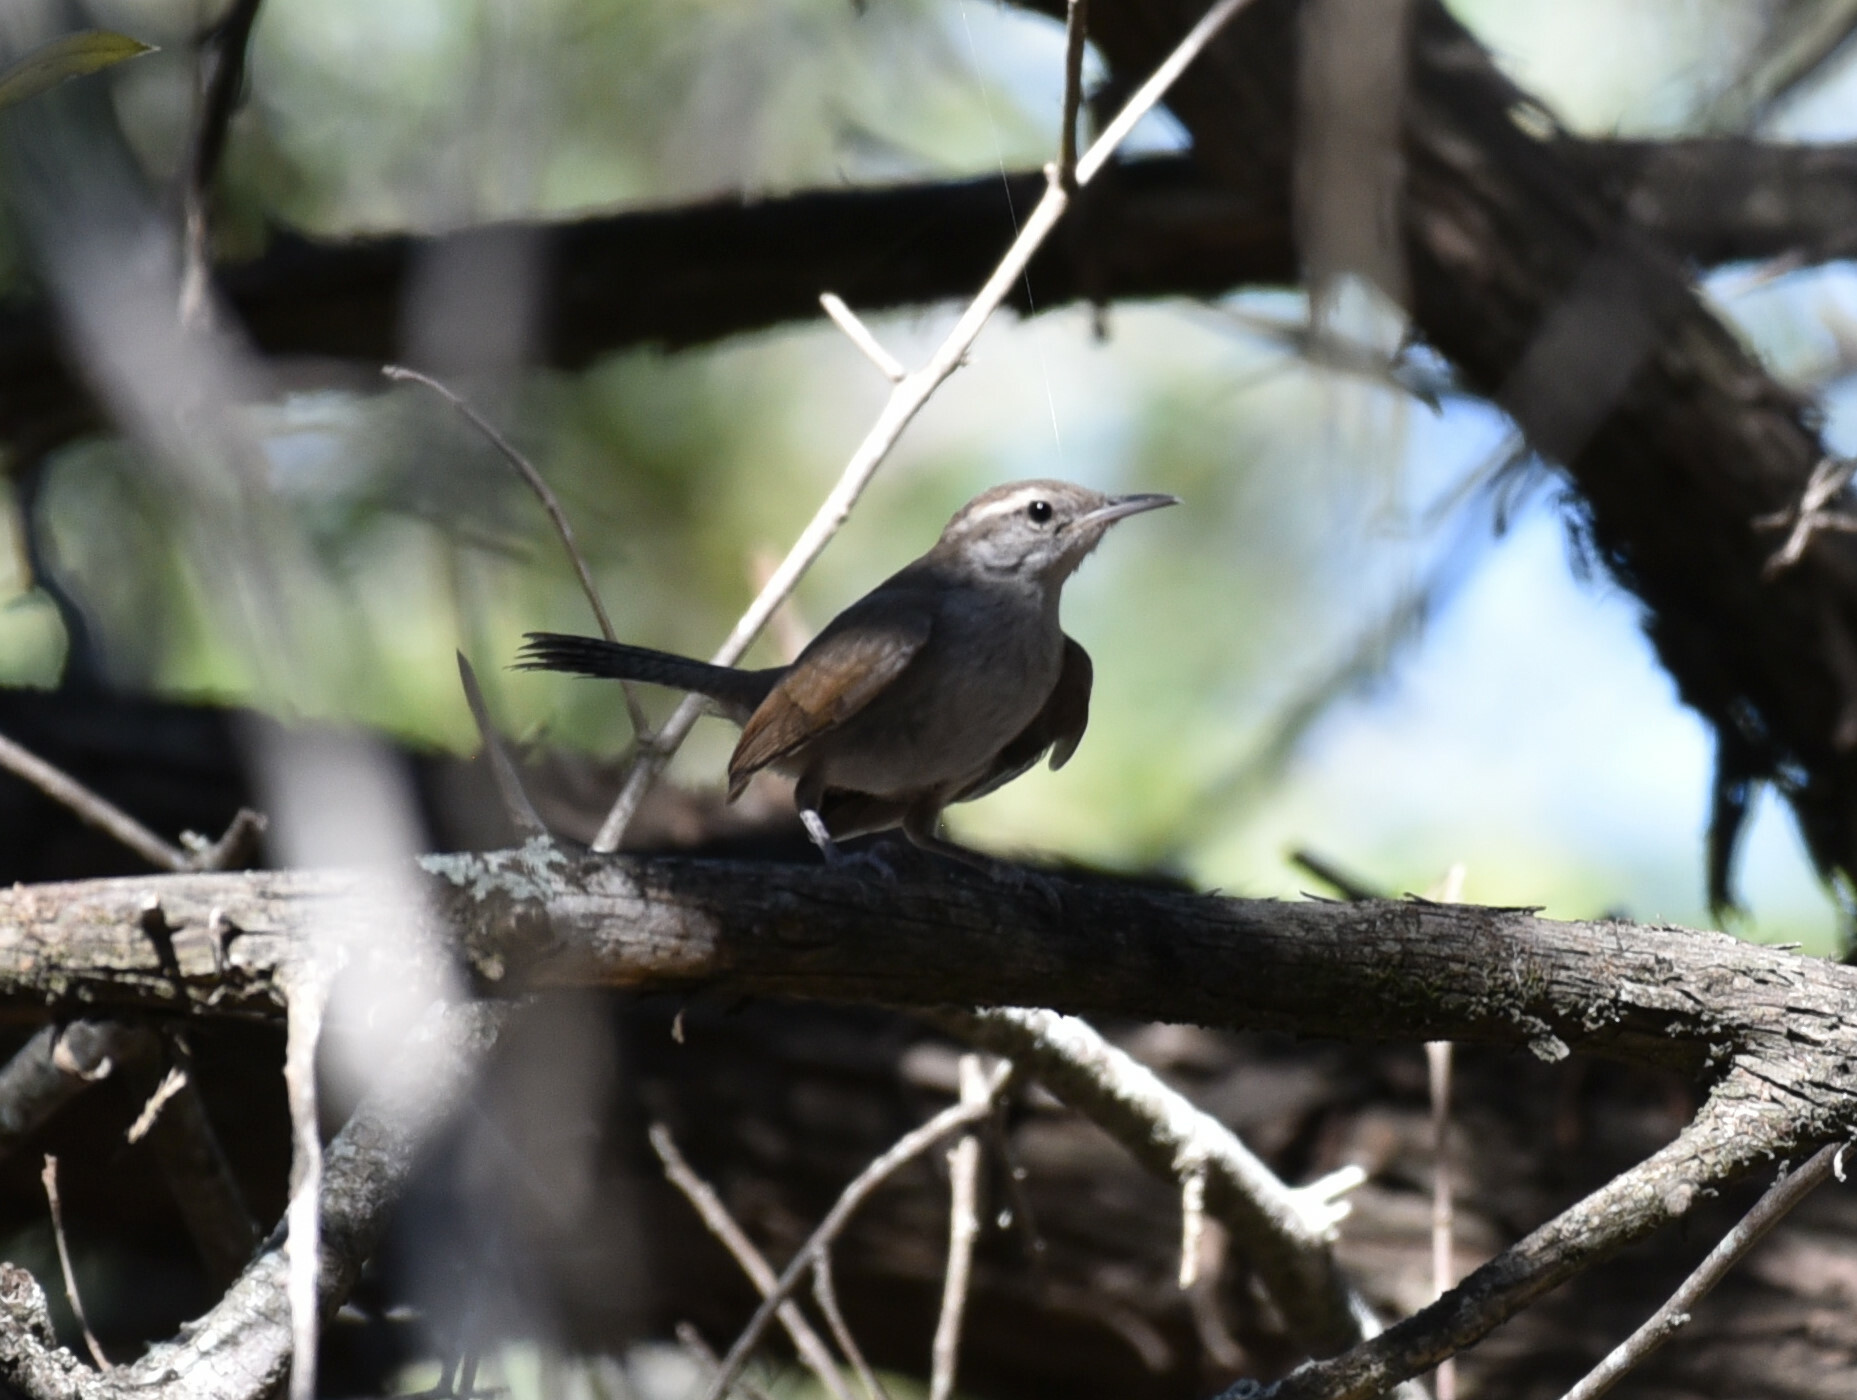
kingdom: Animalia
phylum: Chordata
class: Aves
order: Passeriformes
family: Troglodytidae
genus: Thryomanes
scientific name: Thryomanes bewickii
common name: Bewick's wren
